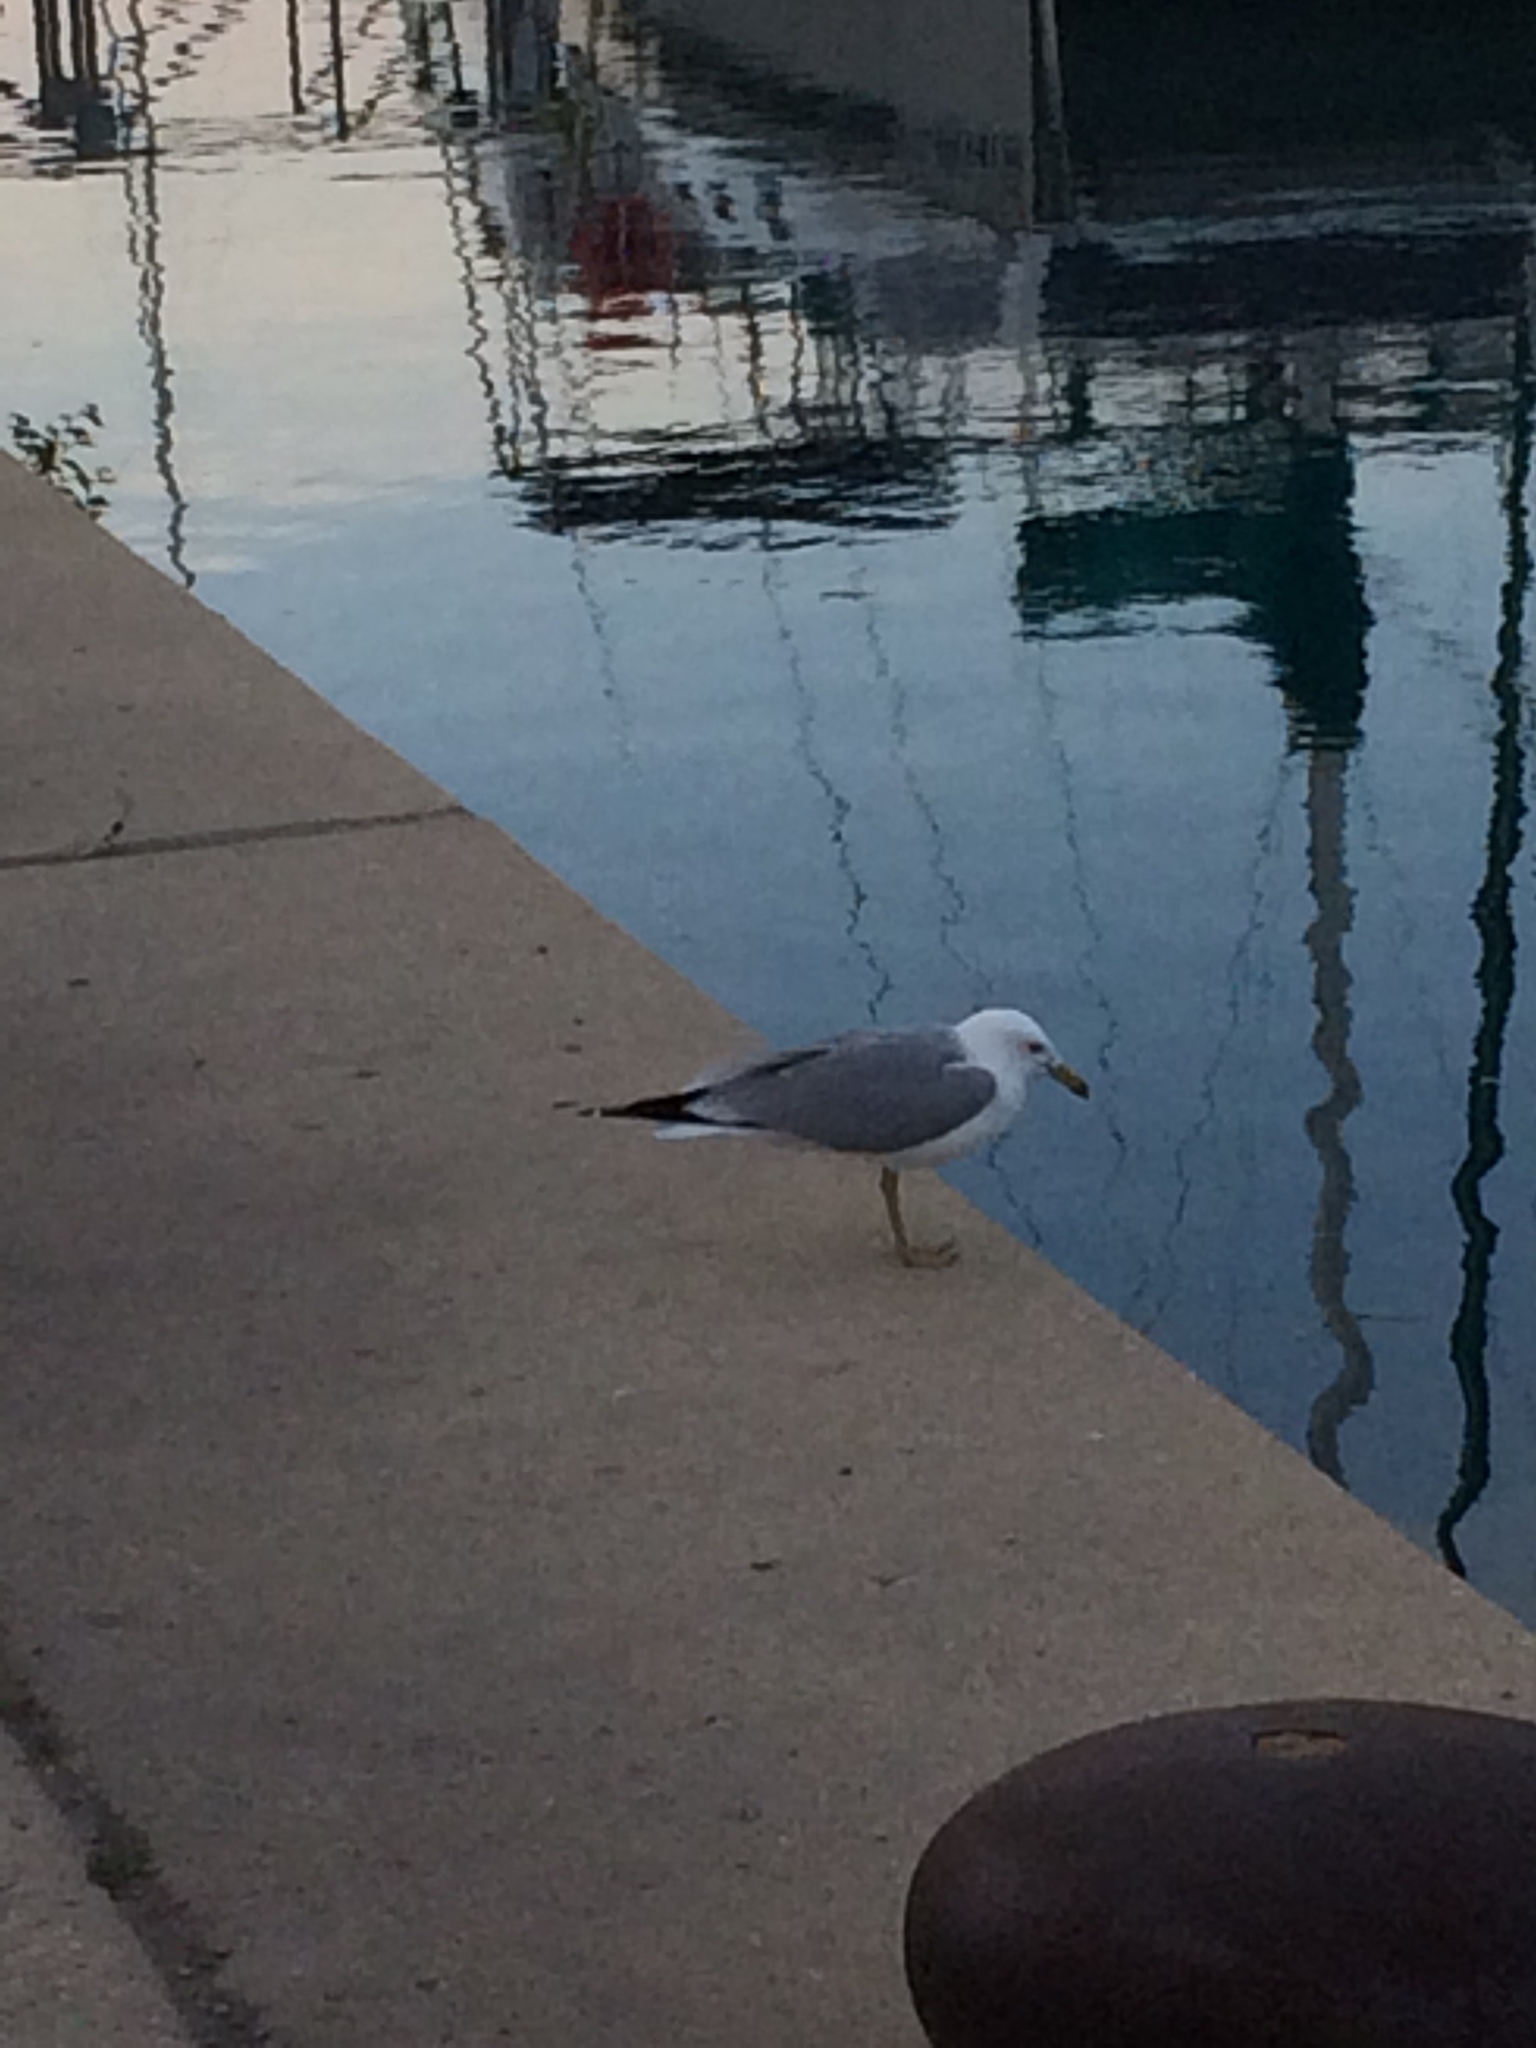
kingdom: Animalia
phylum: Chordata
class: Aves
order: Charadriiformes
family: Laridae
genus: Larus
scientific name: Larus delawarensis
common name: Ring-billed gull
